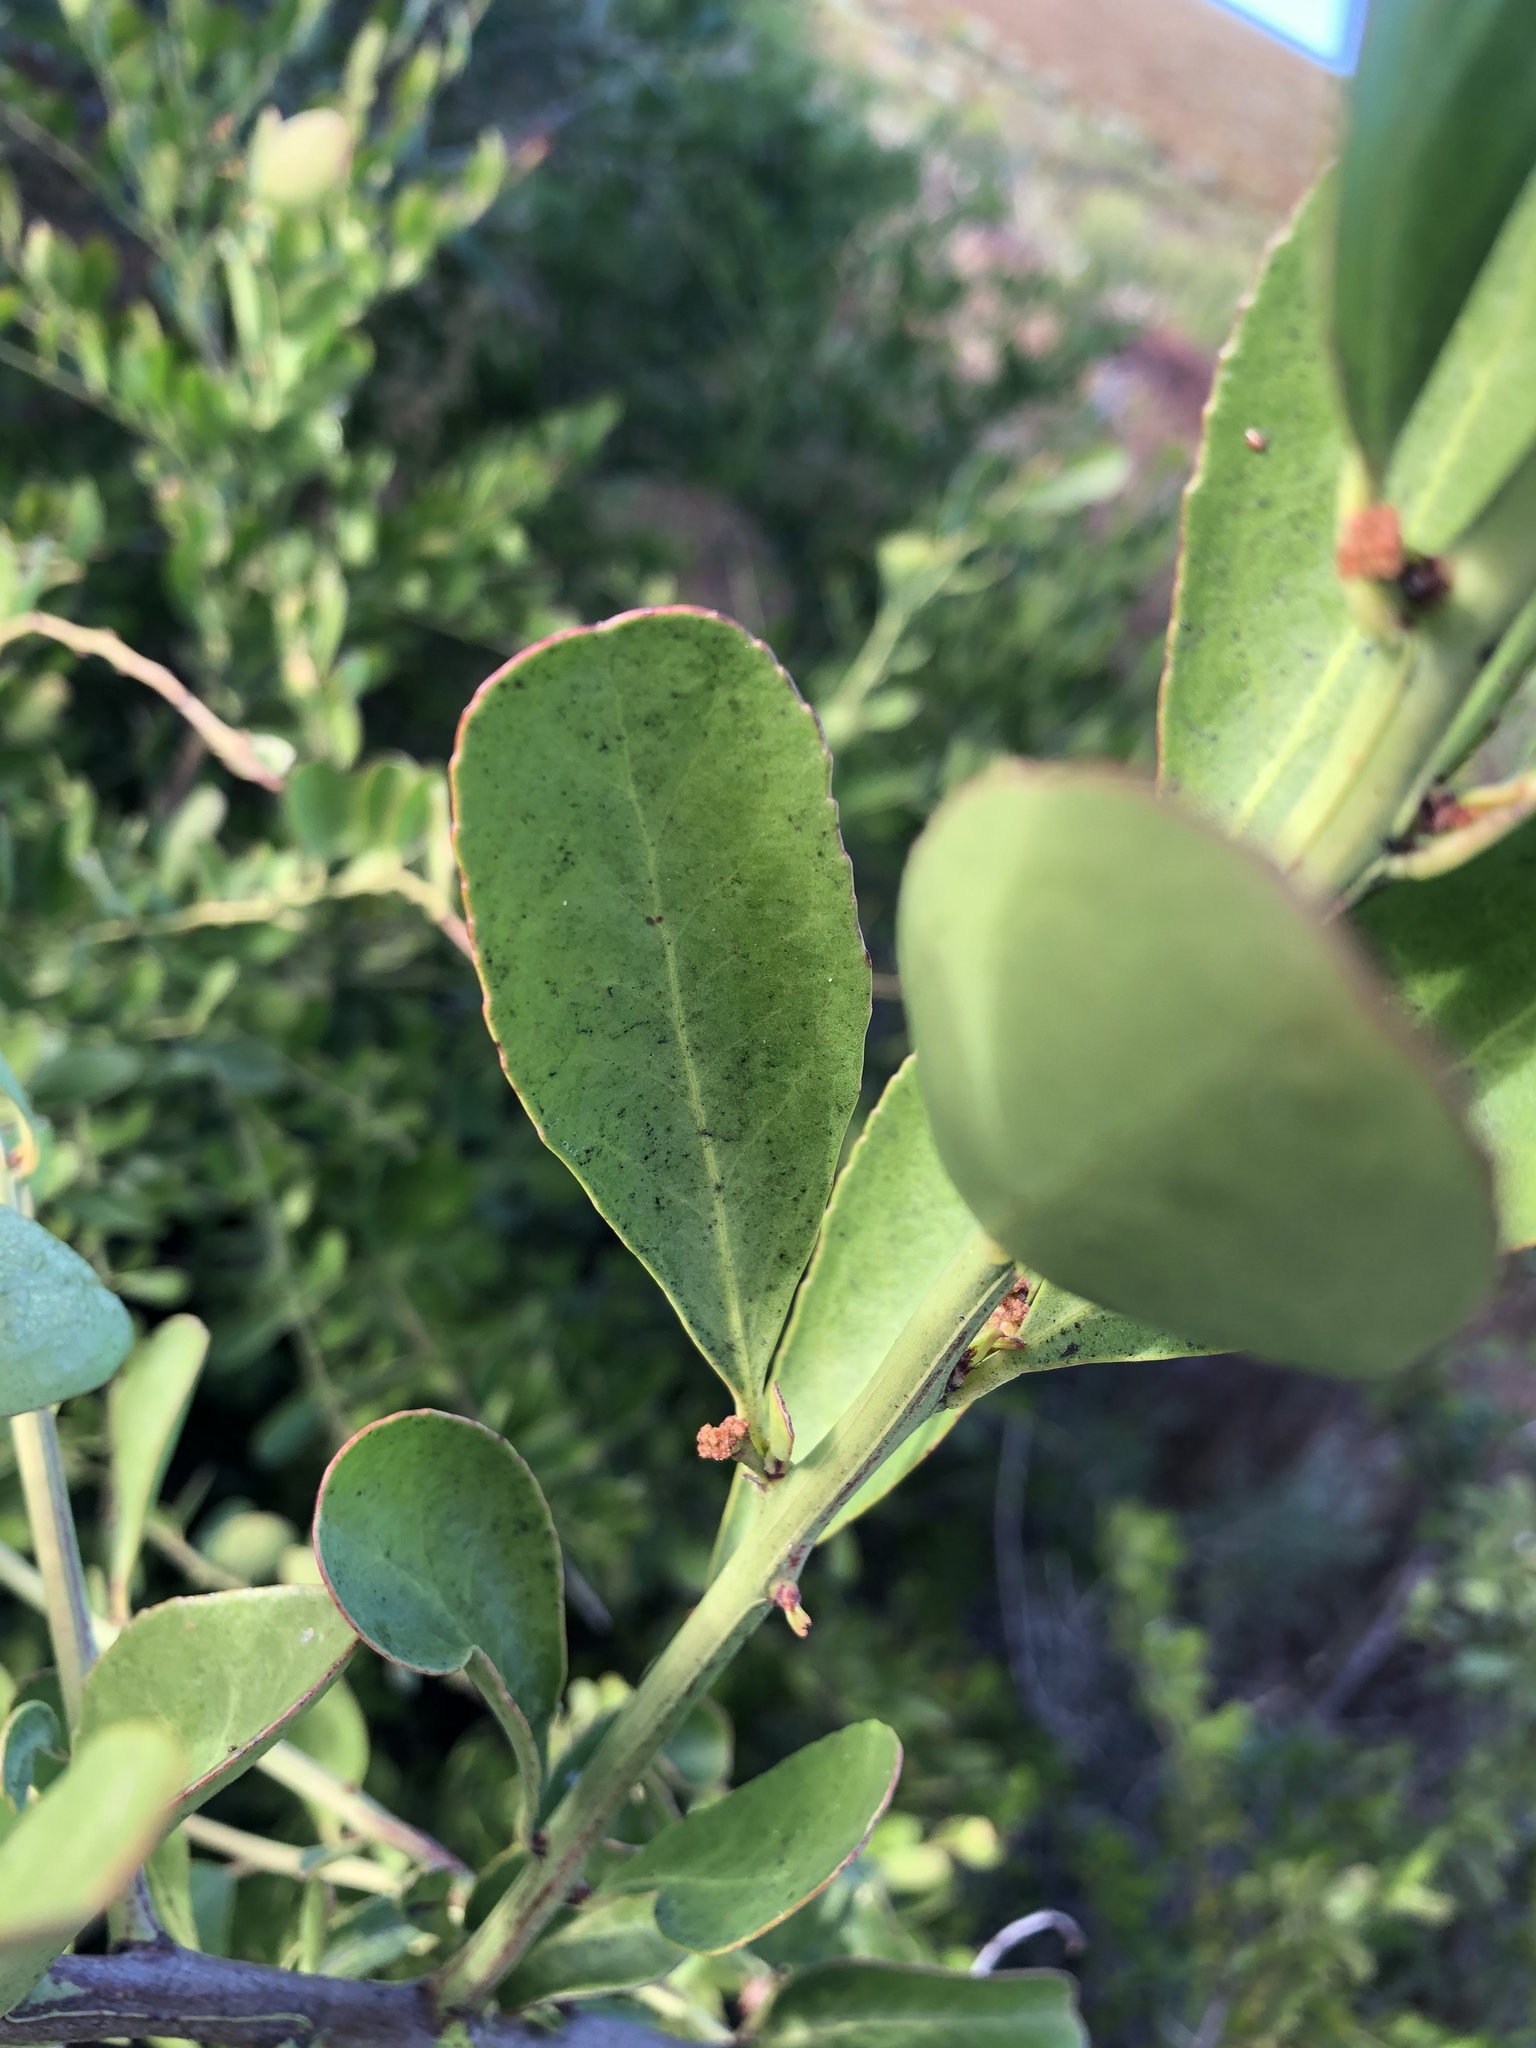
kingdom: Plantae
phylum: Tracheophyta
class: Magnoliopsida
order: Celastrales
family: Celastraceae
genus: Gymnosporia
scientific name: Gymnosporia buxifolia
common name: Common spike-thorn
